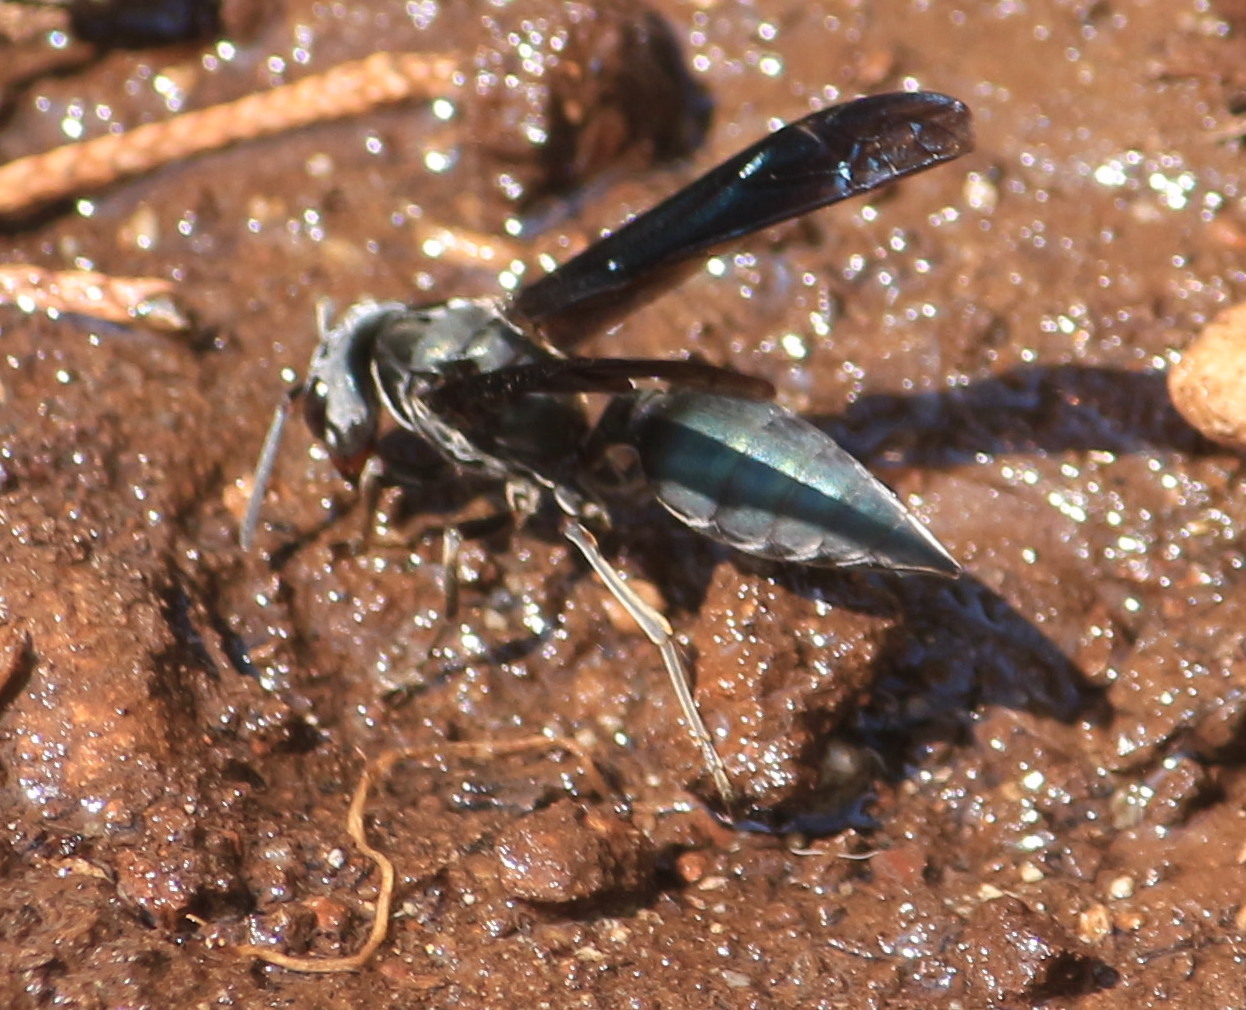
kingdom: Animalia
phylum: Arthropoda
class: Insecta
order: Hymenoptera
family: Vespidae
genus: Synoeca
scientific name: Synoeca septentrionalis
